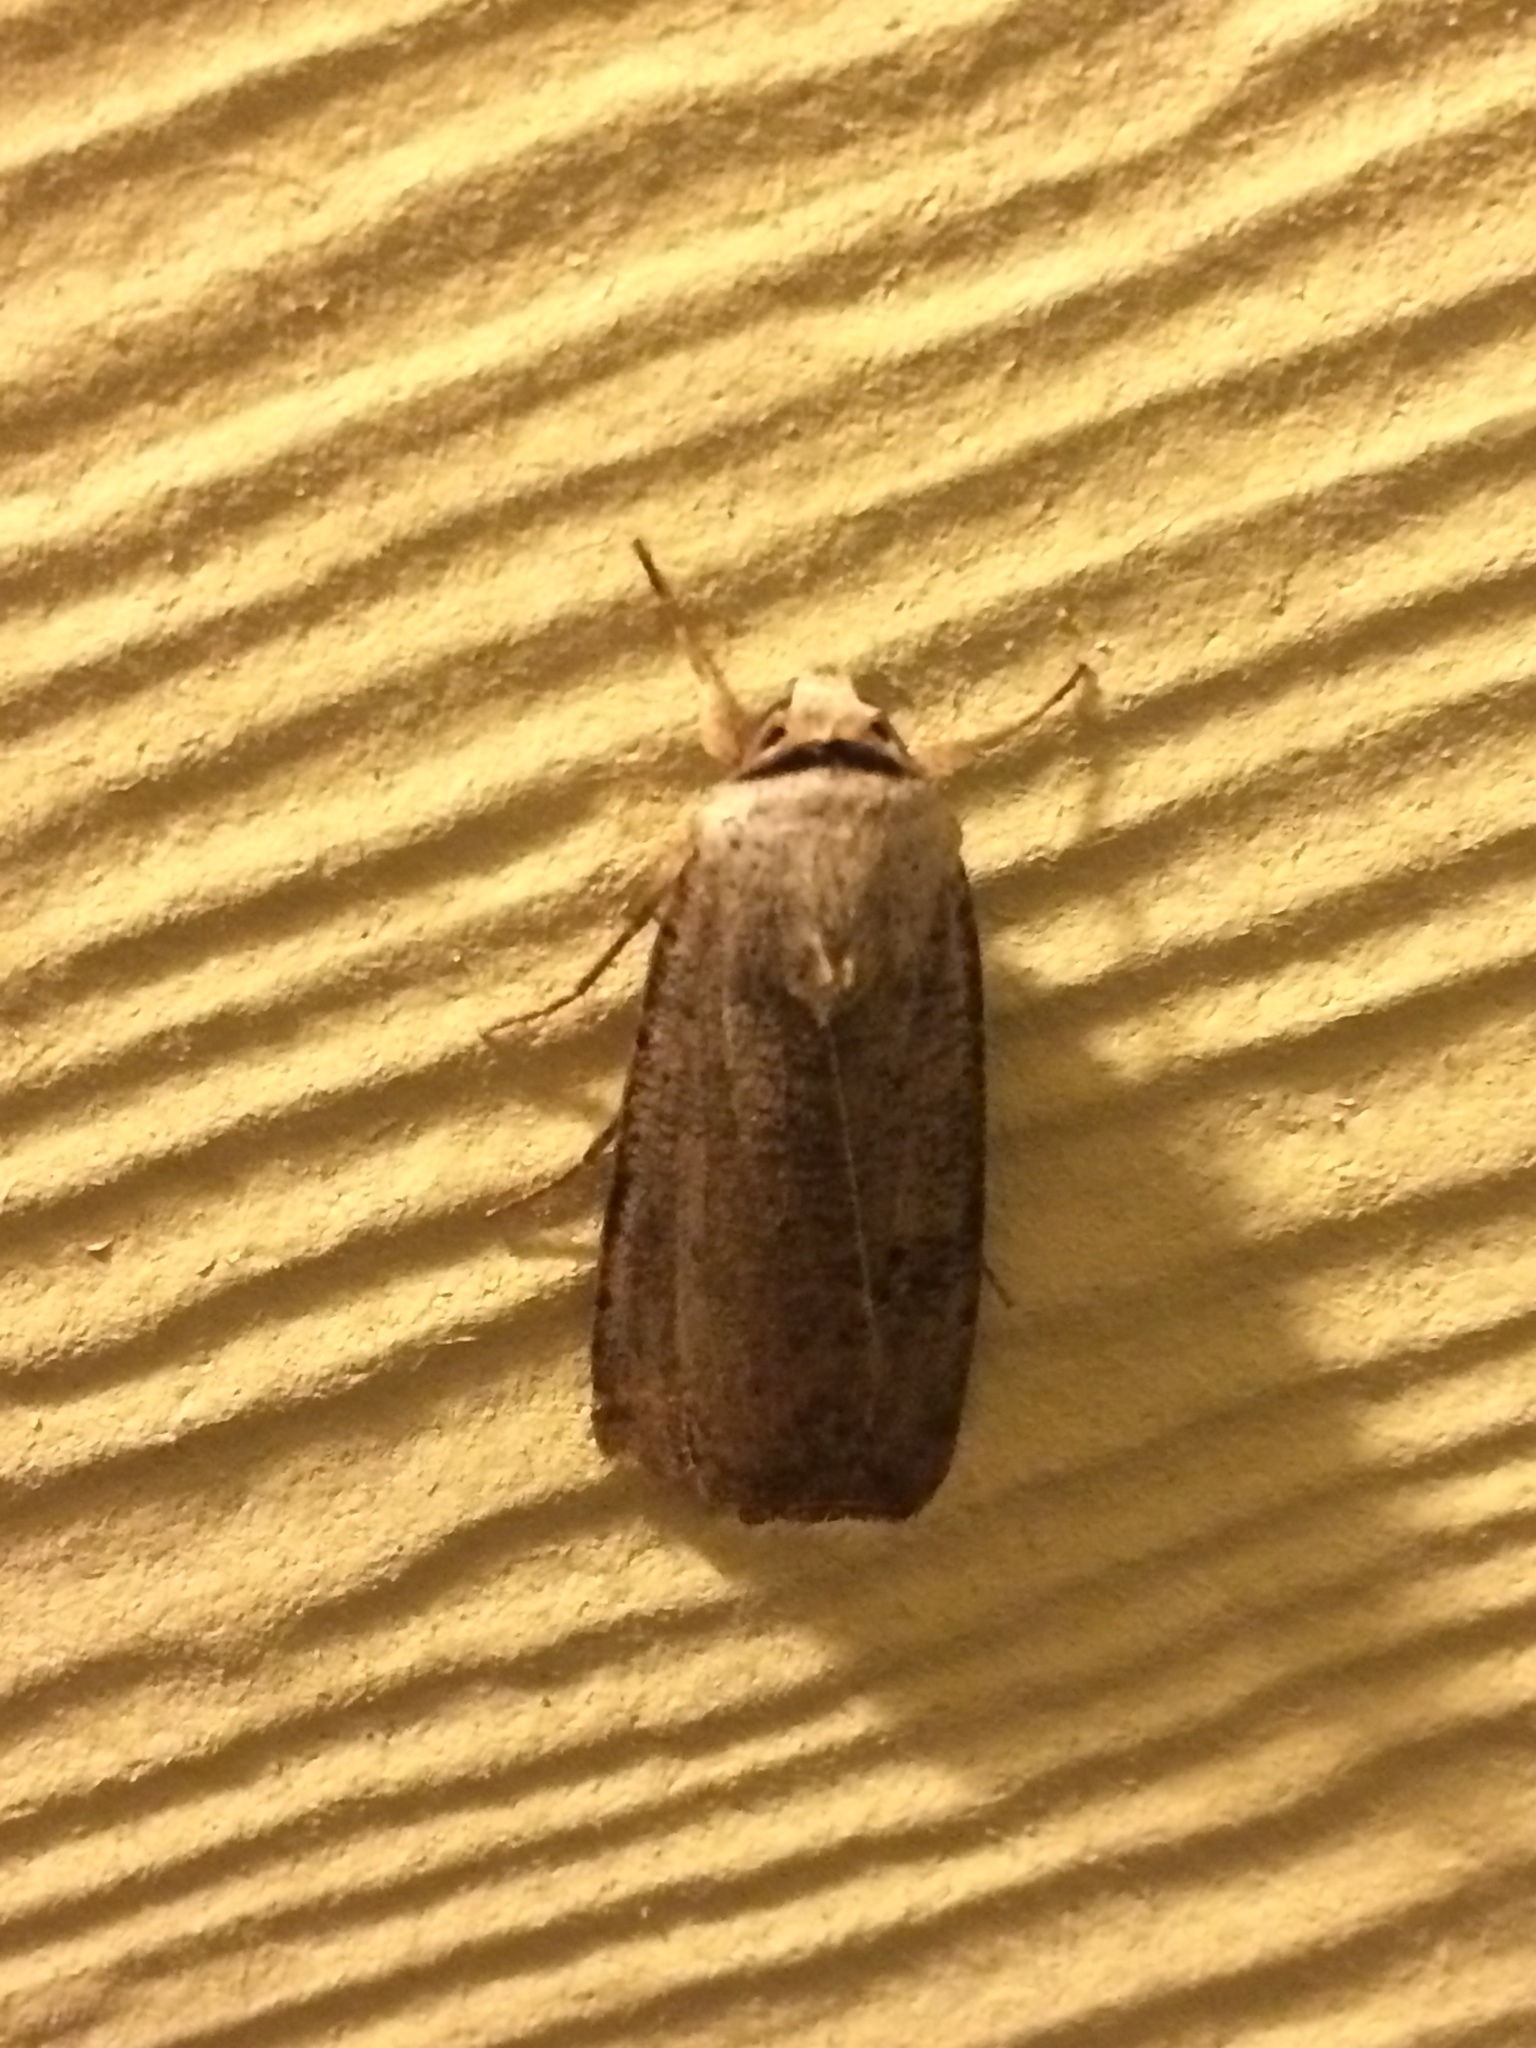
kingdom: Animalia
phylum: Arthropoda
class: Insecta
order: Lepidoptera
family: Noctuidae
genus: Anicla
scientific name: Anicla infecta
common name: Green cutworm
